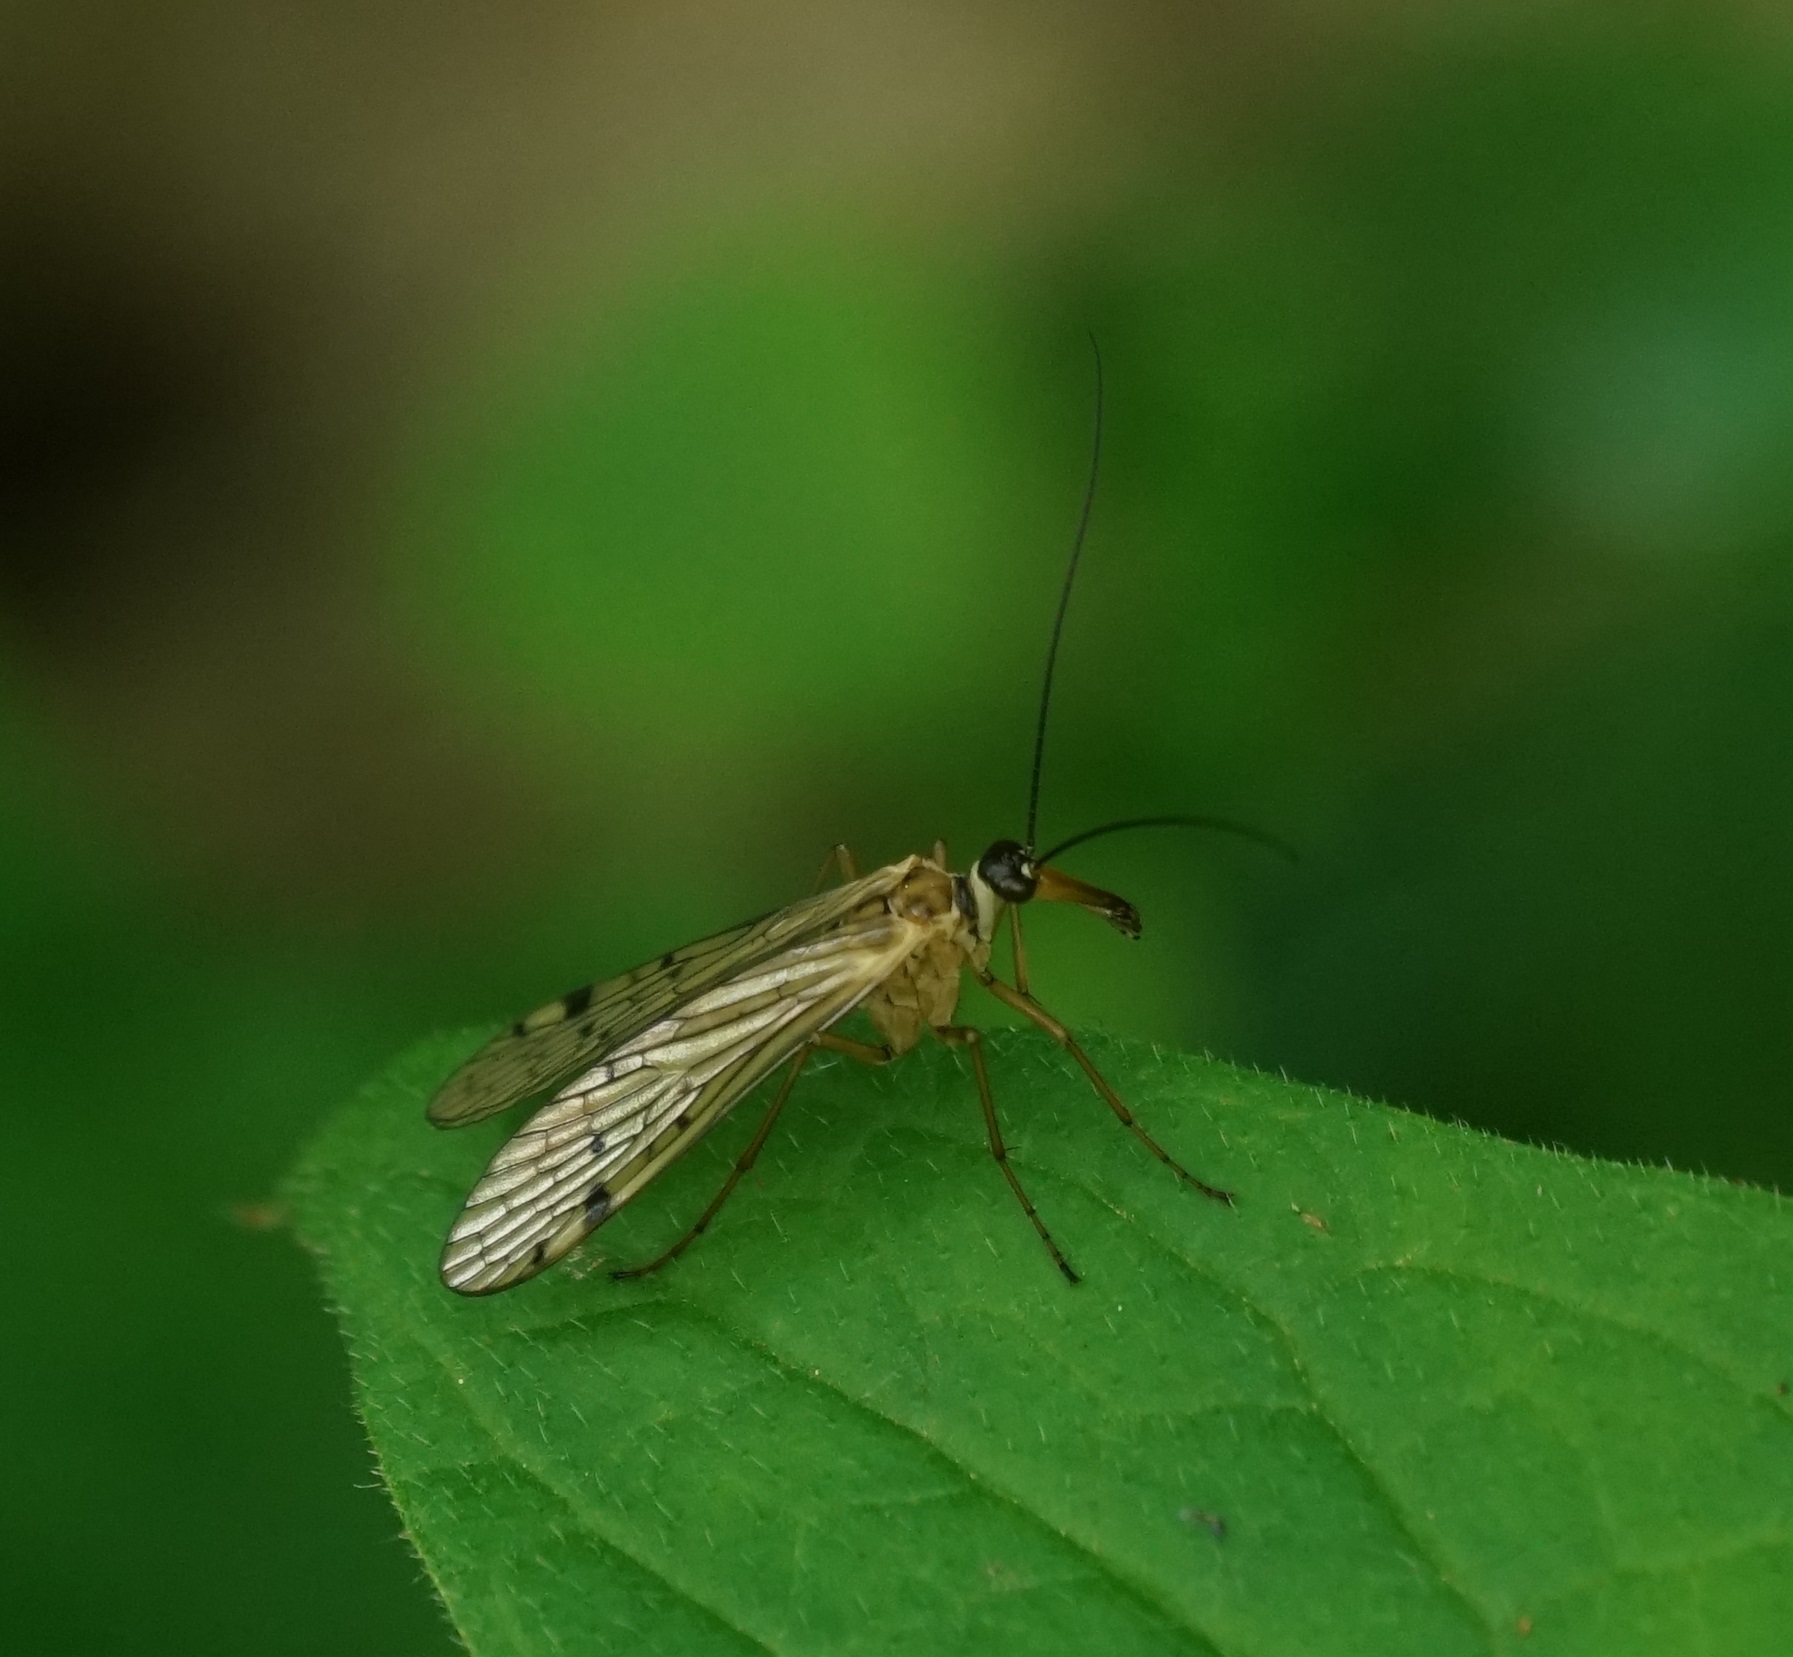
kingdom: Animalia
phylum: Arthropoda
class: Insecta
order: Mecoptera
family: Panorpidae
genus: Panorpa
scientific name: Panorpa alpina
